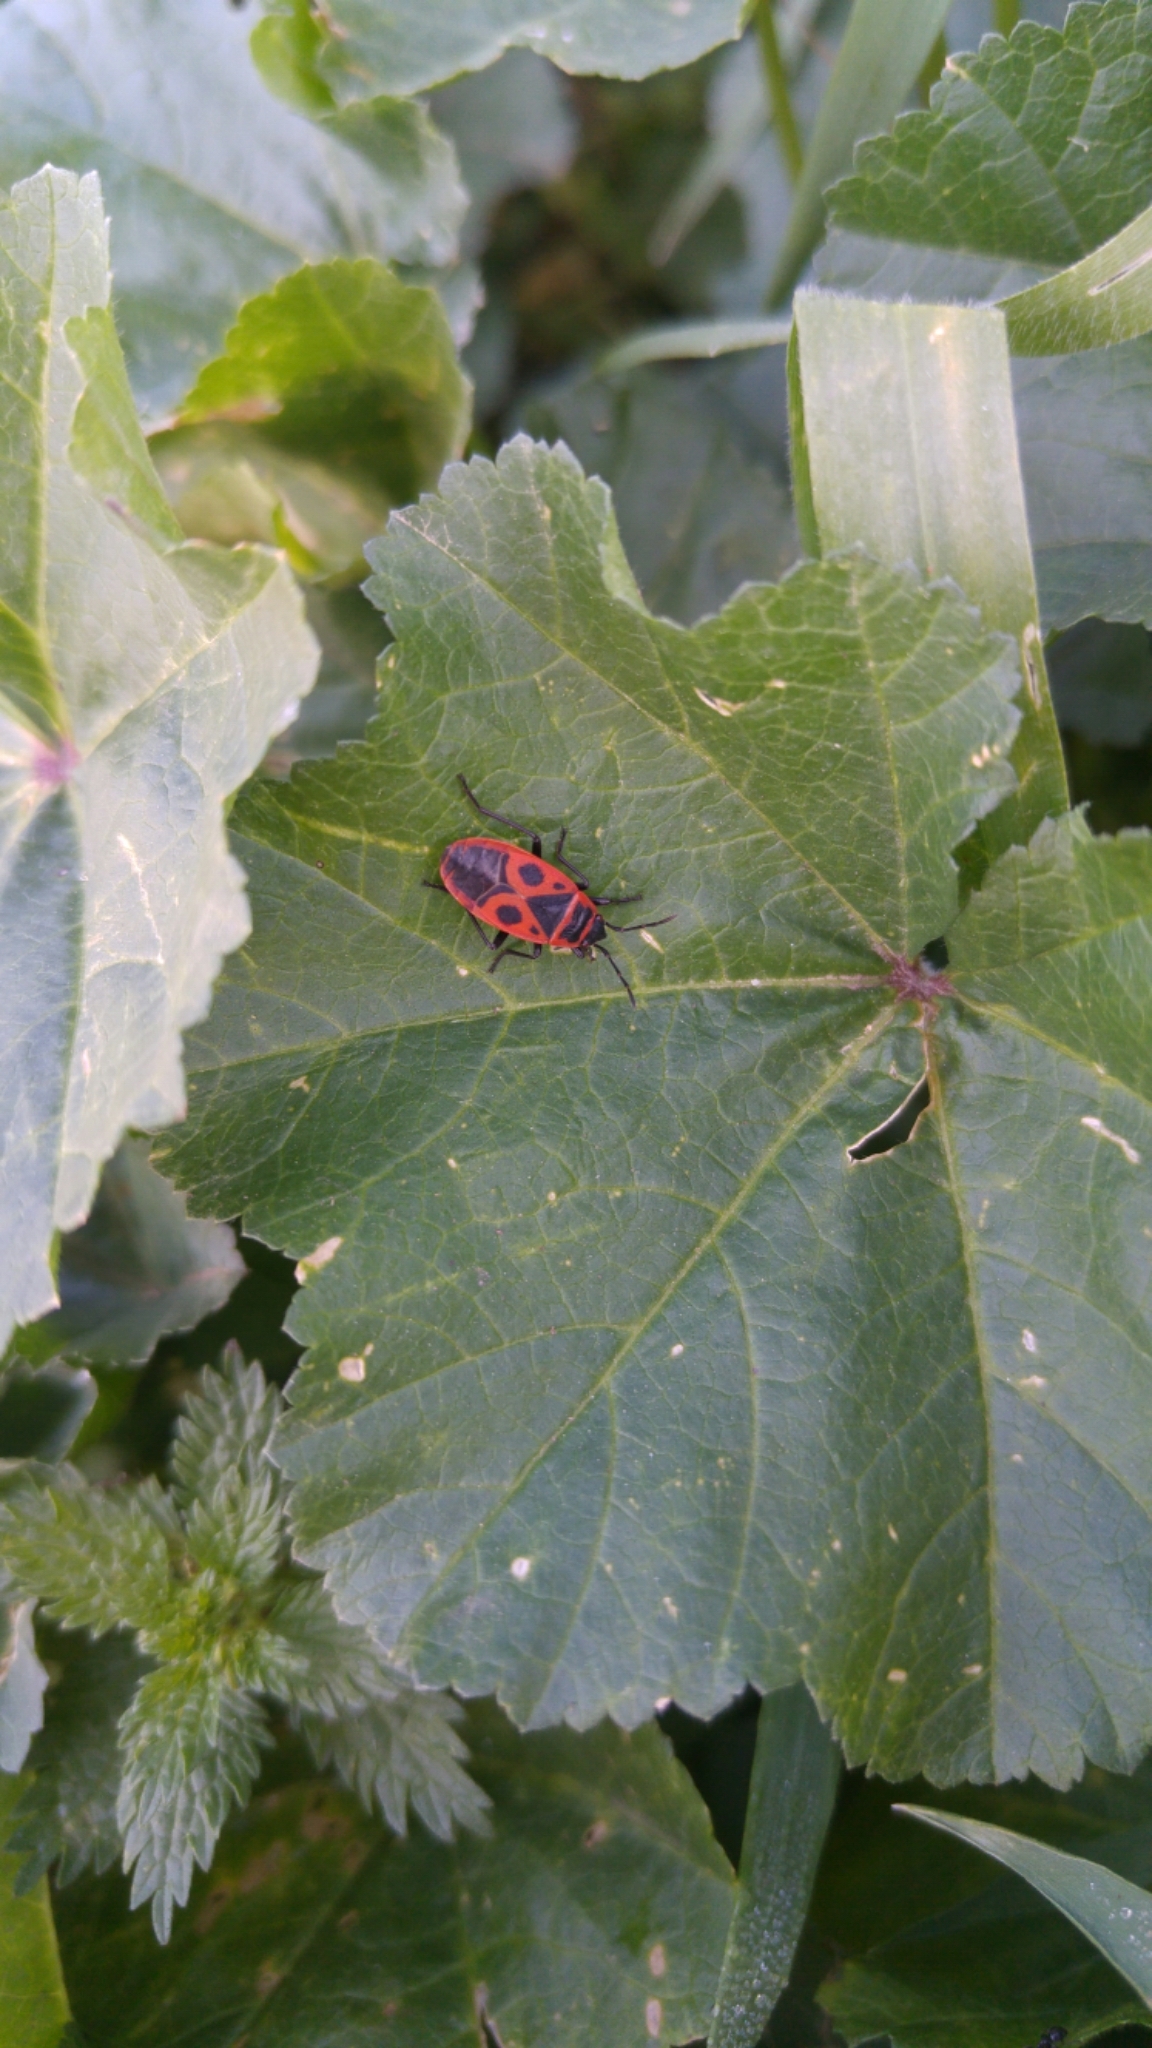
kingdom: Animalia
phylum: Arthropoda
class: Insecta
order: Hemiptera
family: Pyrrhocoridae
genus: Pyrrhocoris
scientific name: Pyrrhocoris apterus
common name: Firebug
